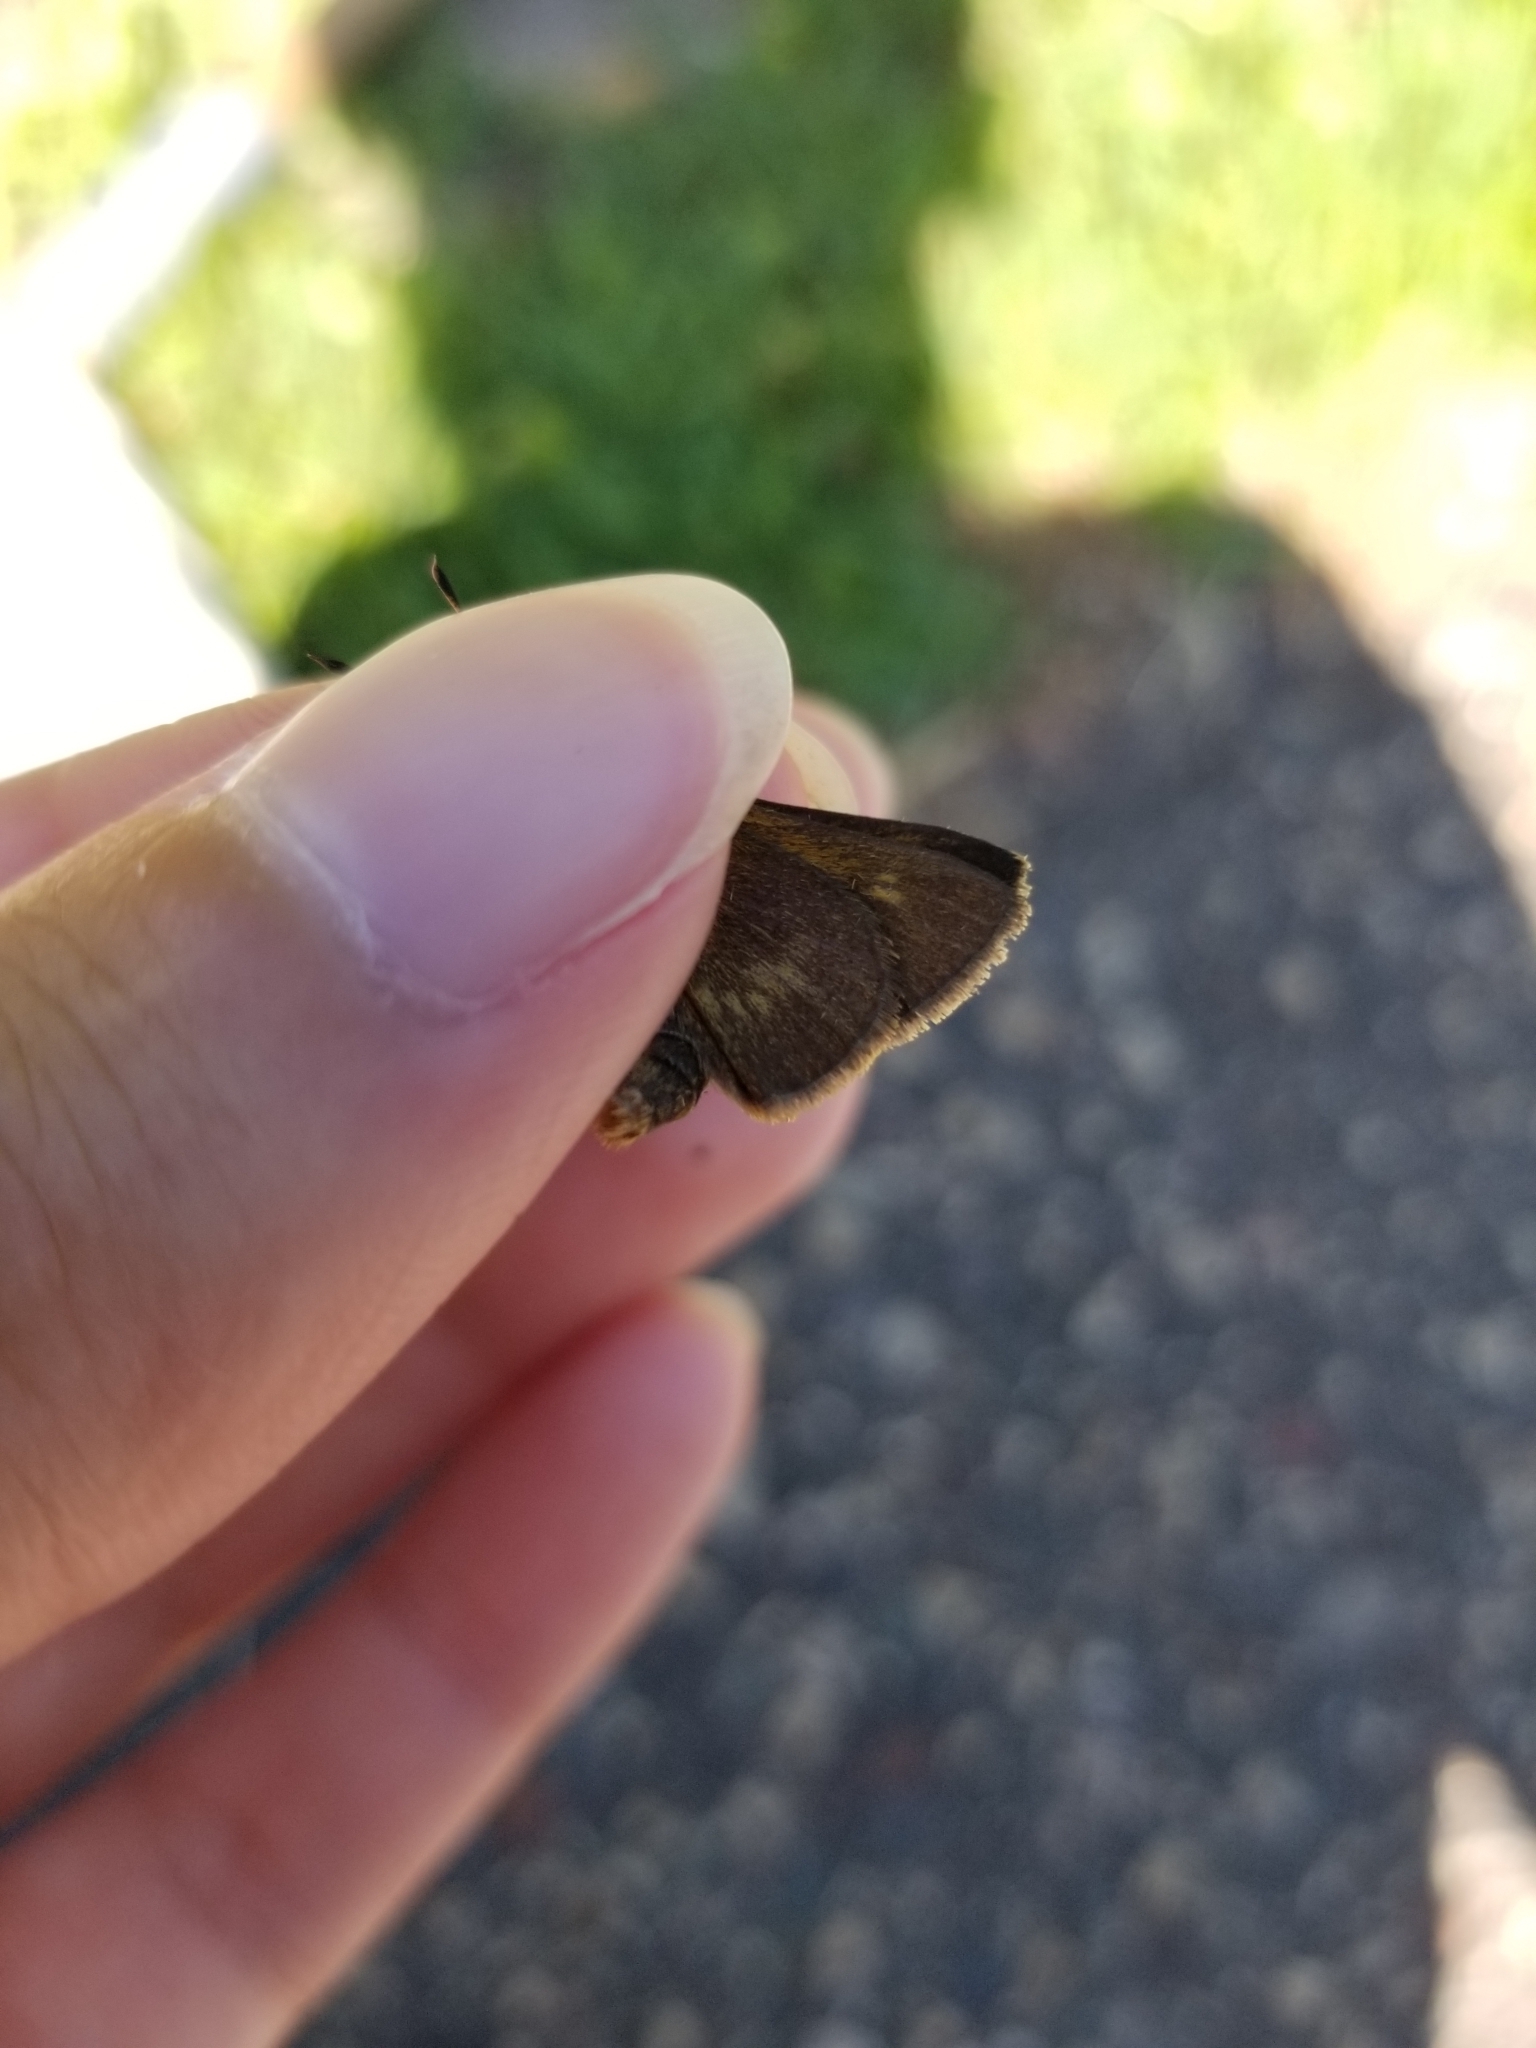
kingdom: Animalia
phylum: Arthropoda
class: Insecta
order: Lepidoptera
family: Hesperiidae
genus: Polites
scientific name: Polites egeremet
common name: Northern broken-dash
